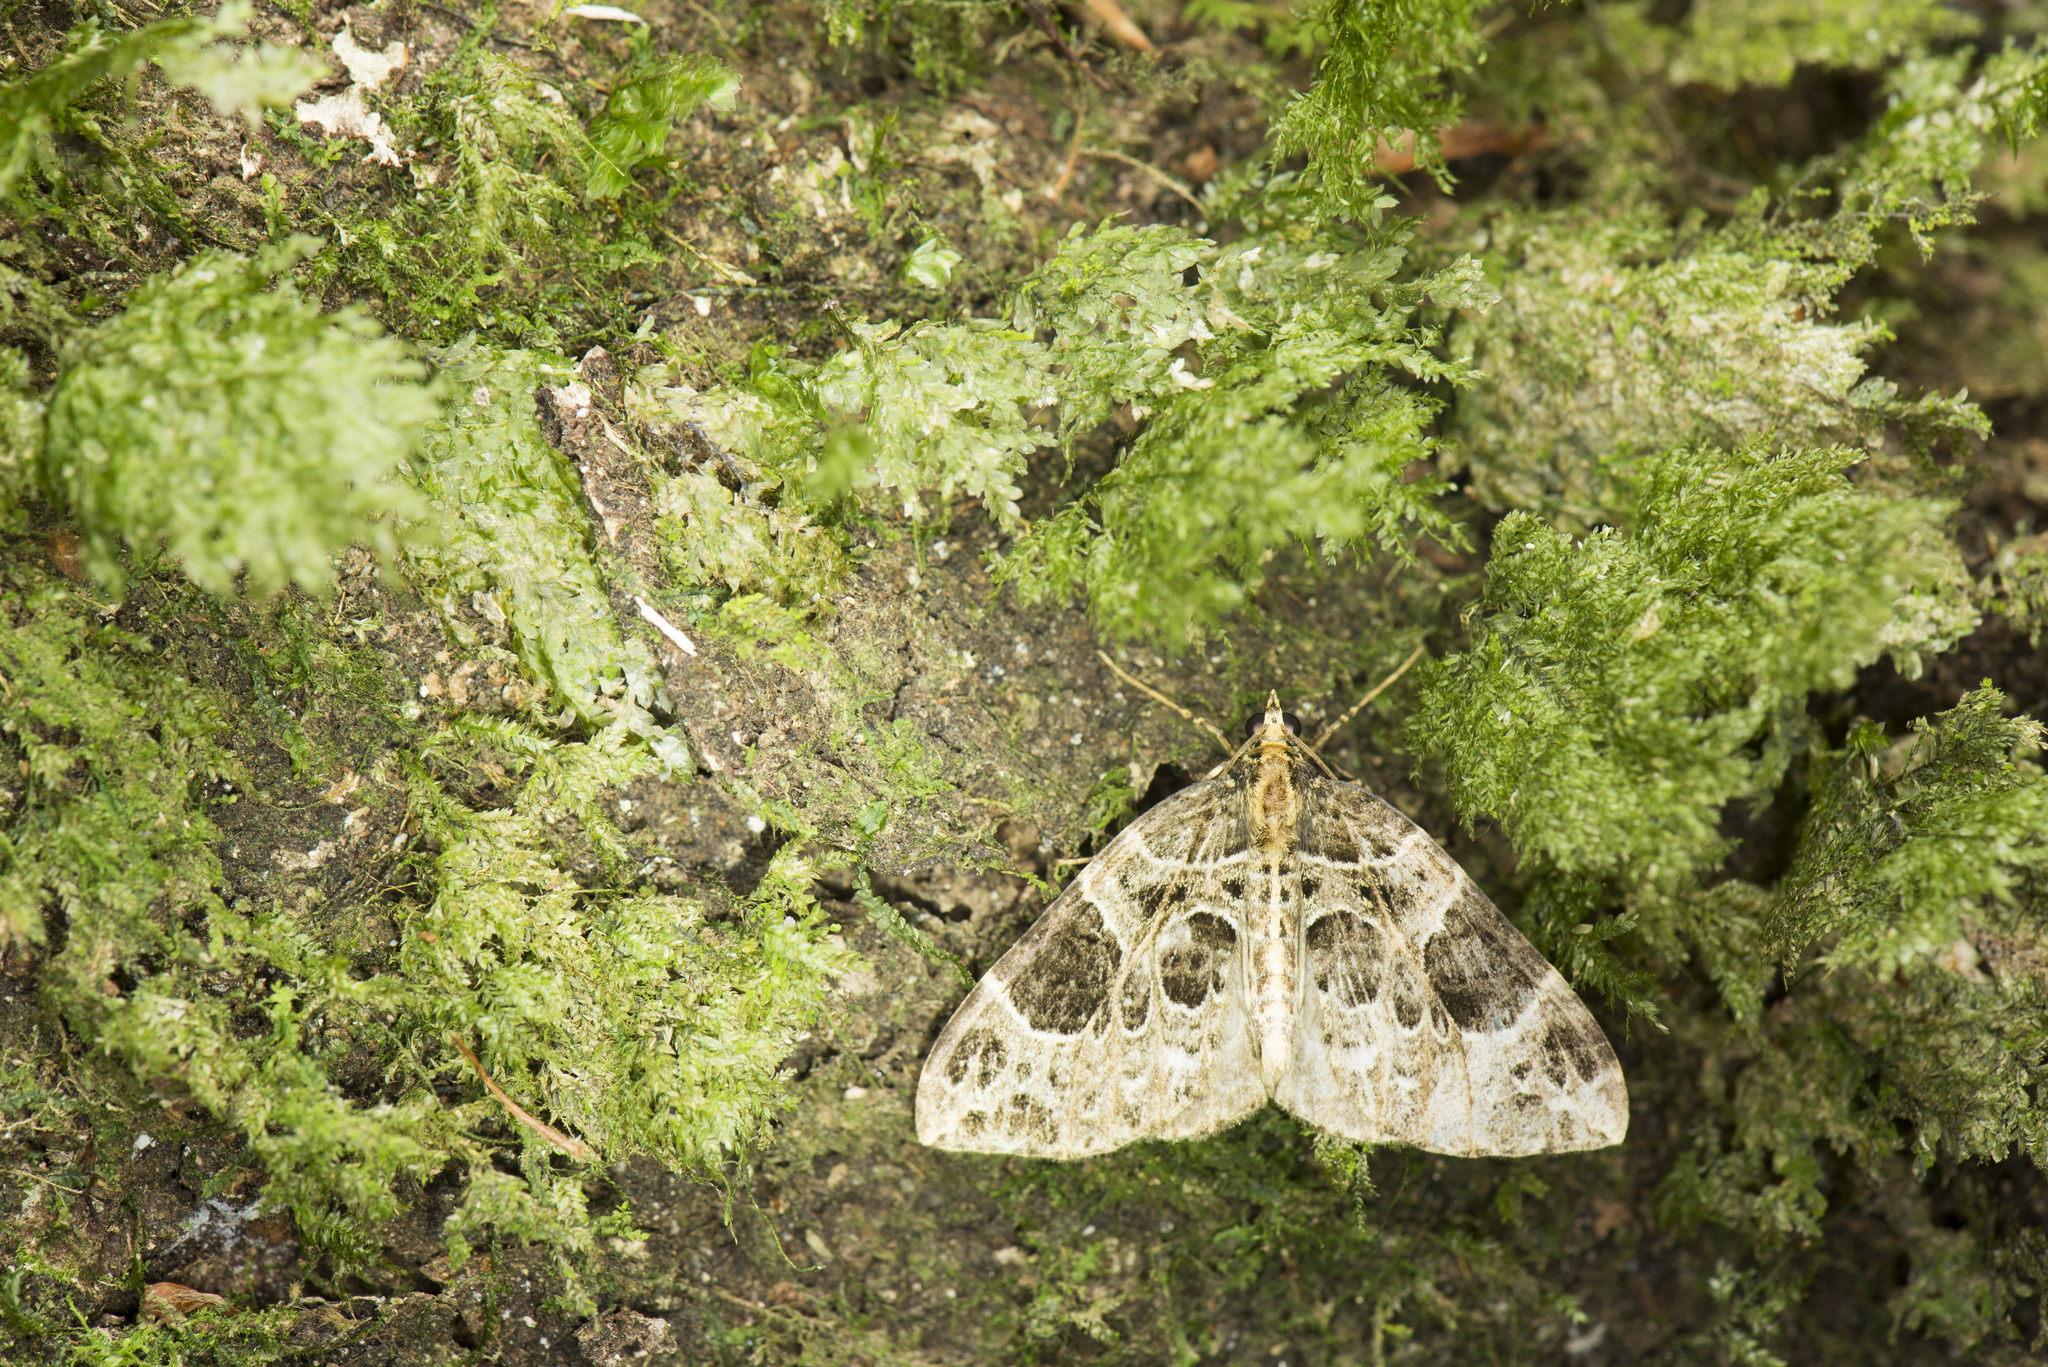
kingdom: Animalia
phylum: Arthropoda
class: Insecta
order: Lepidoptera
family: Geometridae
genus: Eustroma
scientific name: Eustroma melancholica
